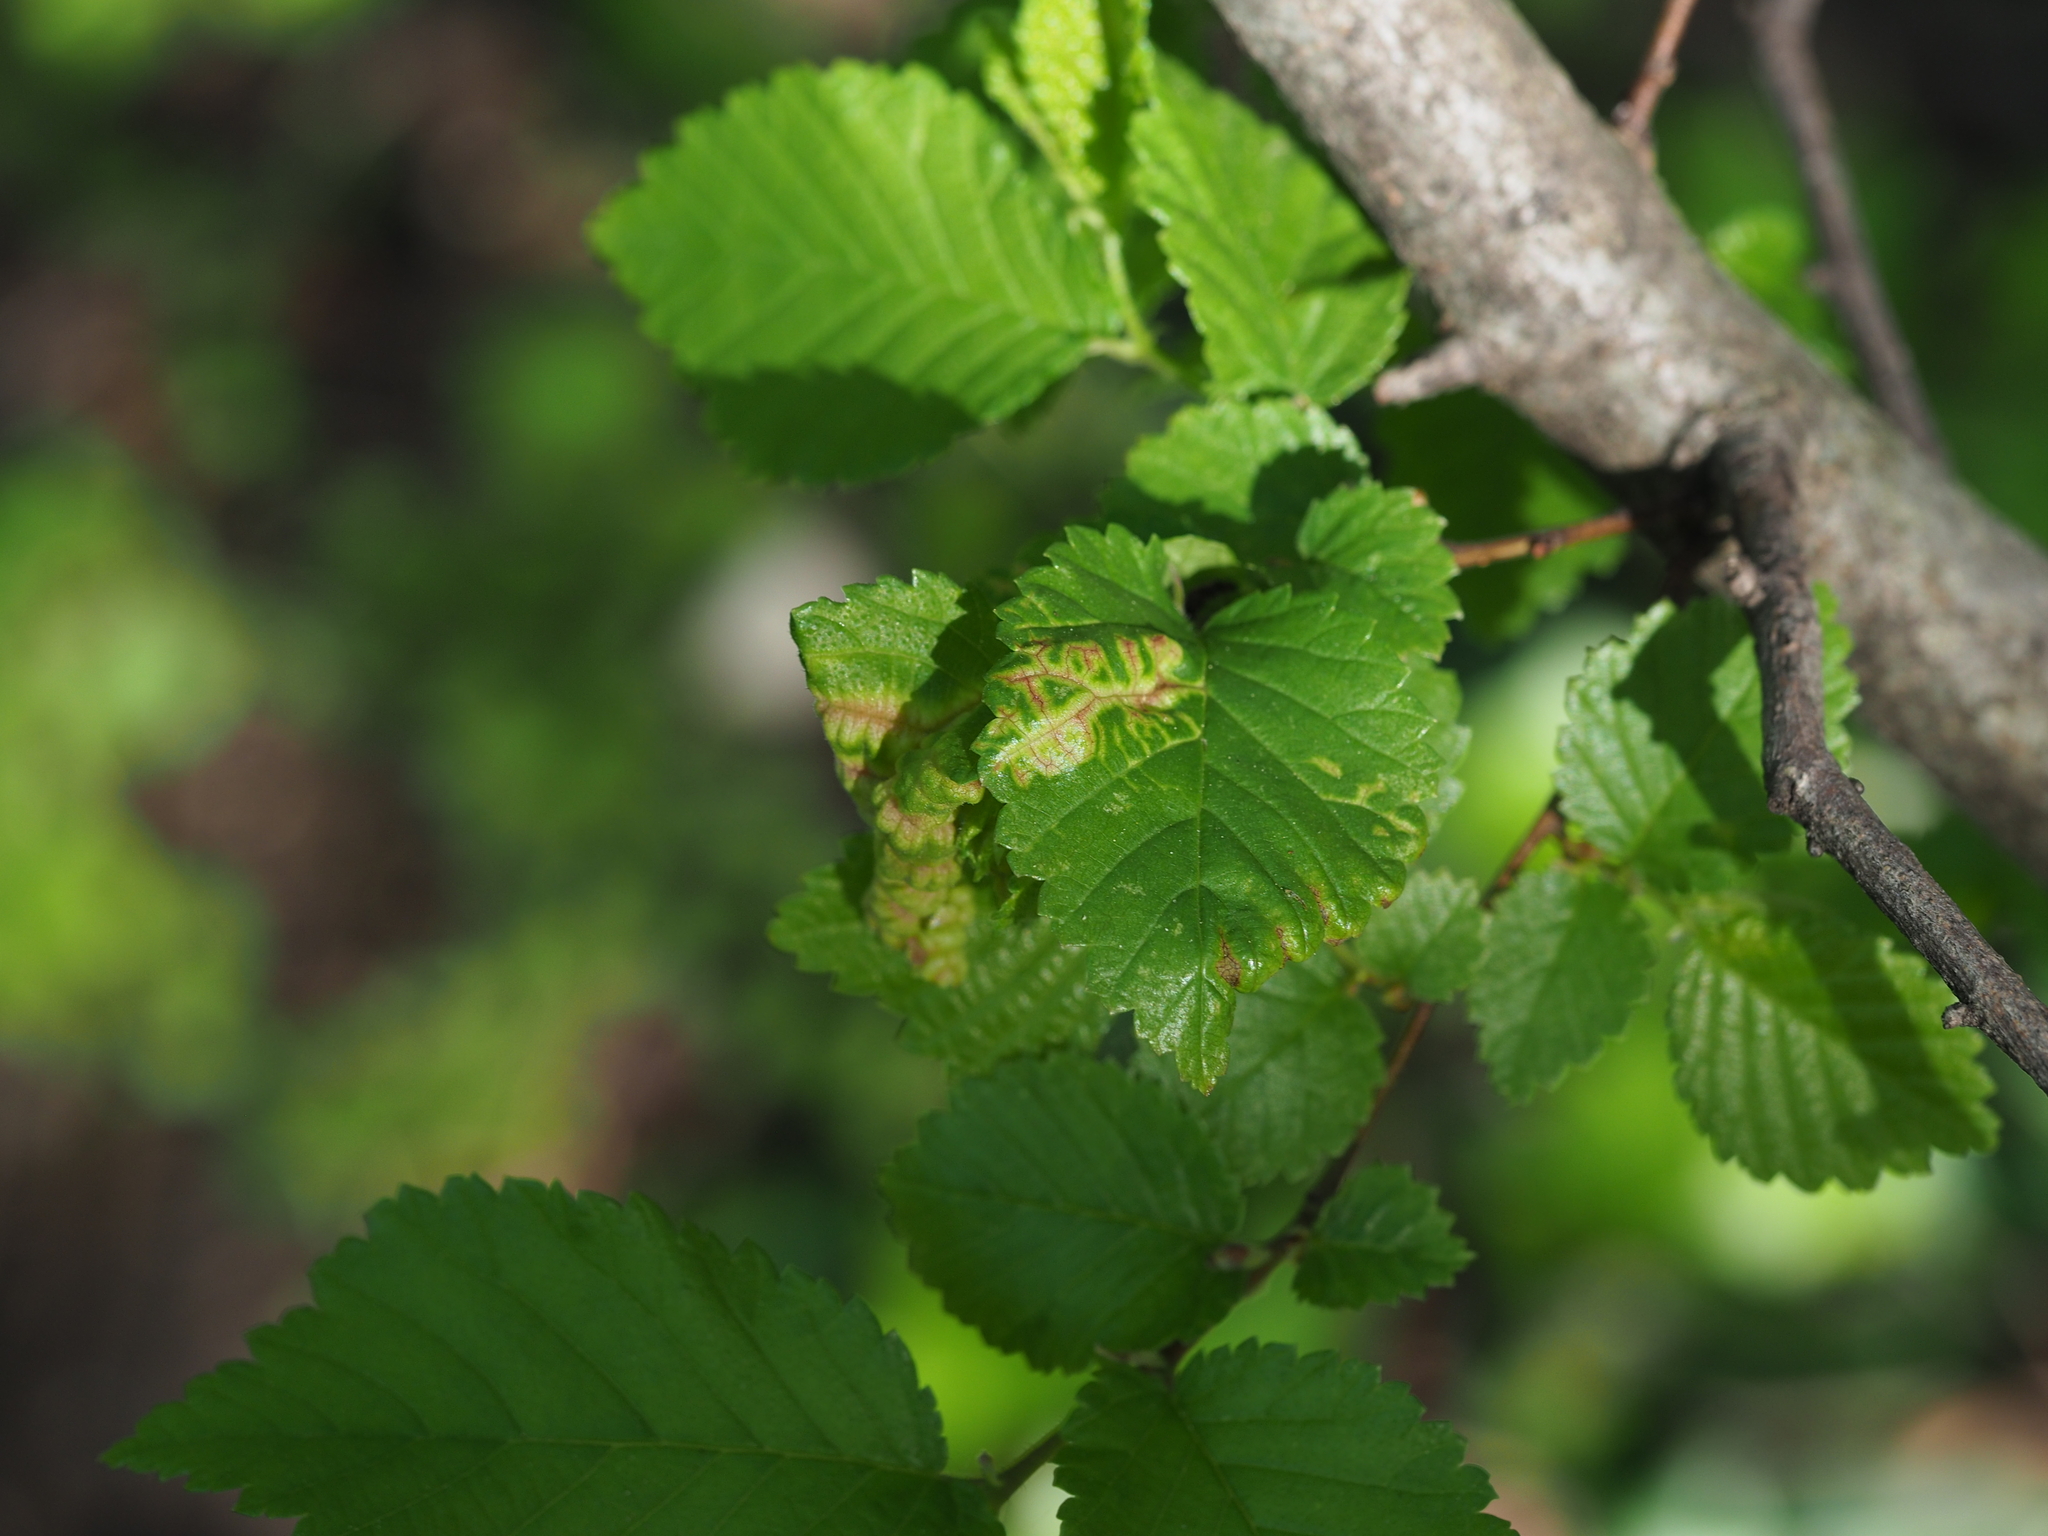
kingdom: Animalia
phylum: Arthropoda
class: Insecta
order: Hemiptera
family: Aphididae
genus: Tetraneura
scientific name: Tetraneura ulmi
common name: Aphid
